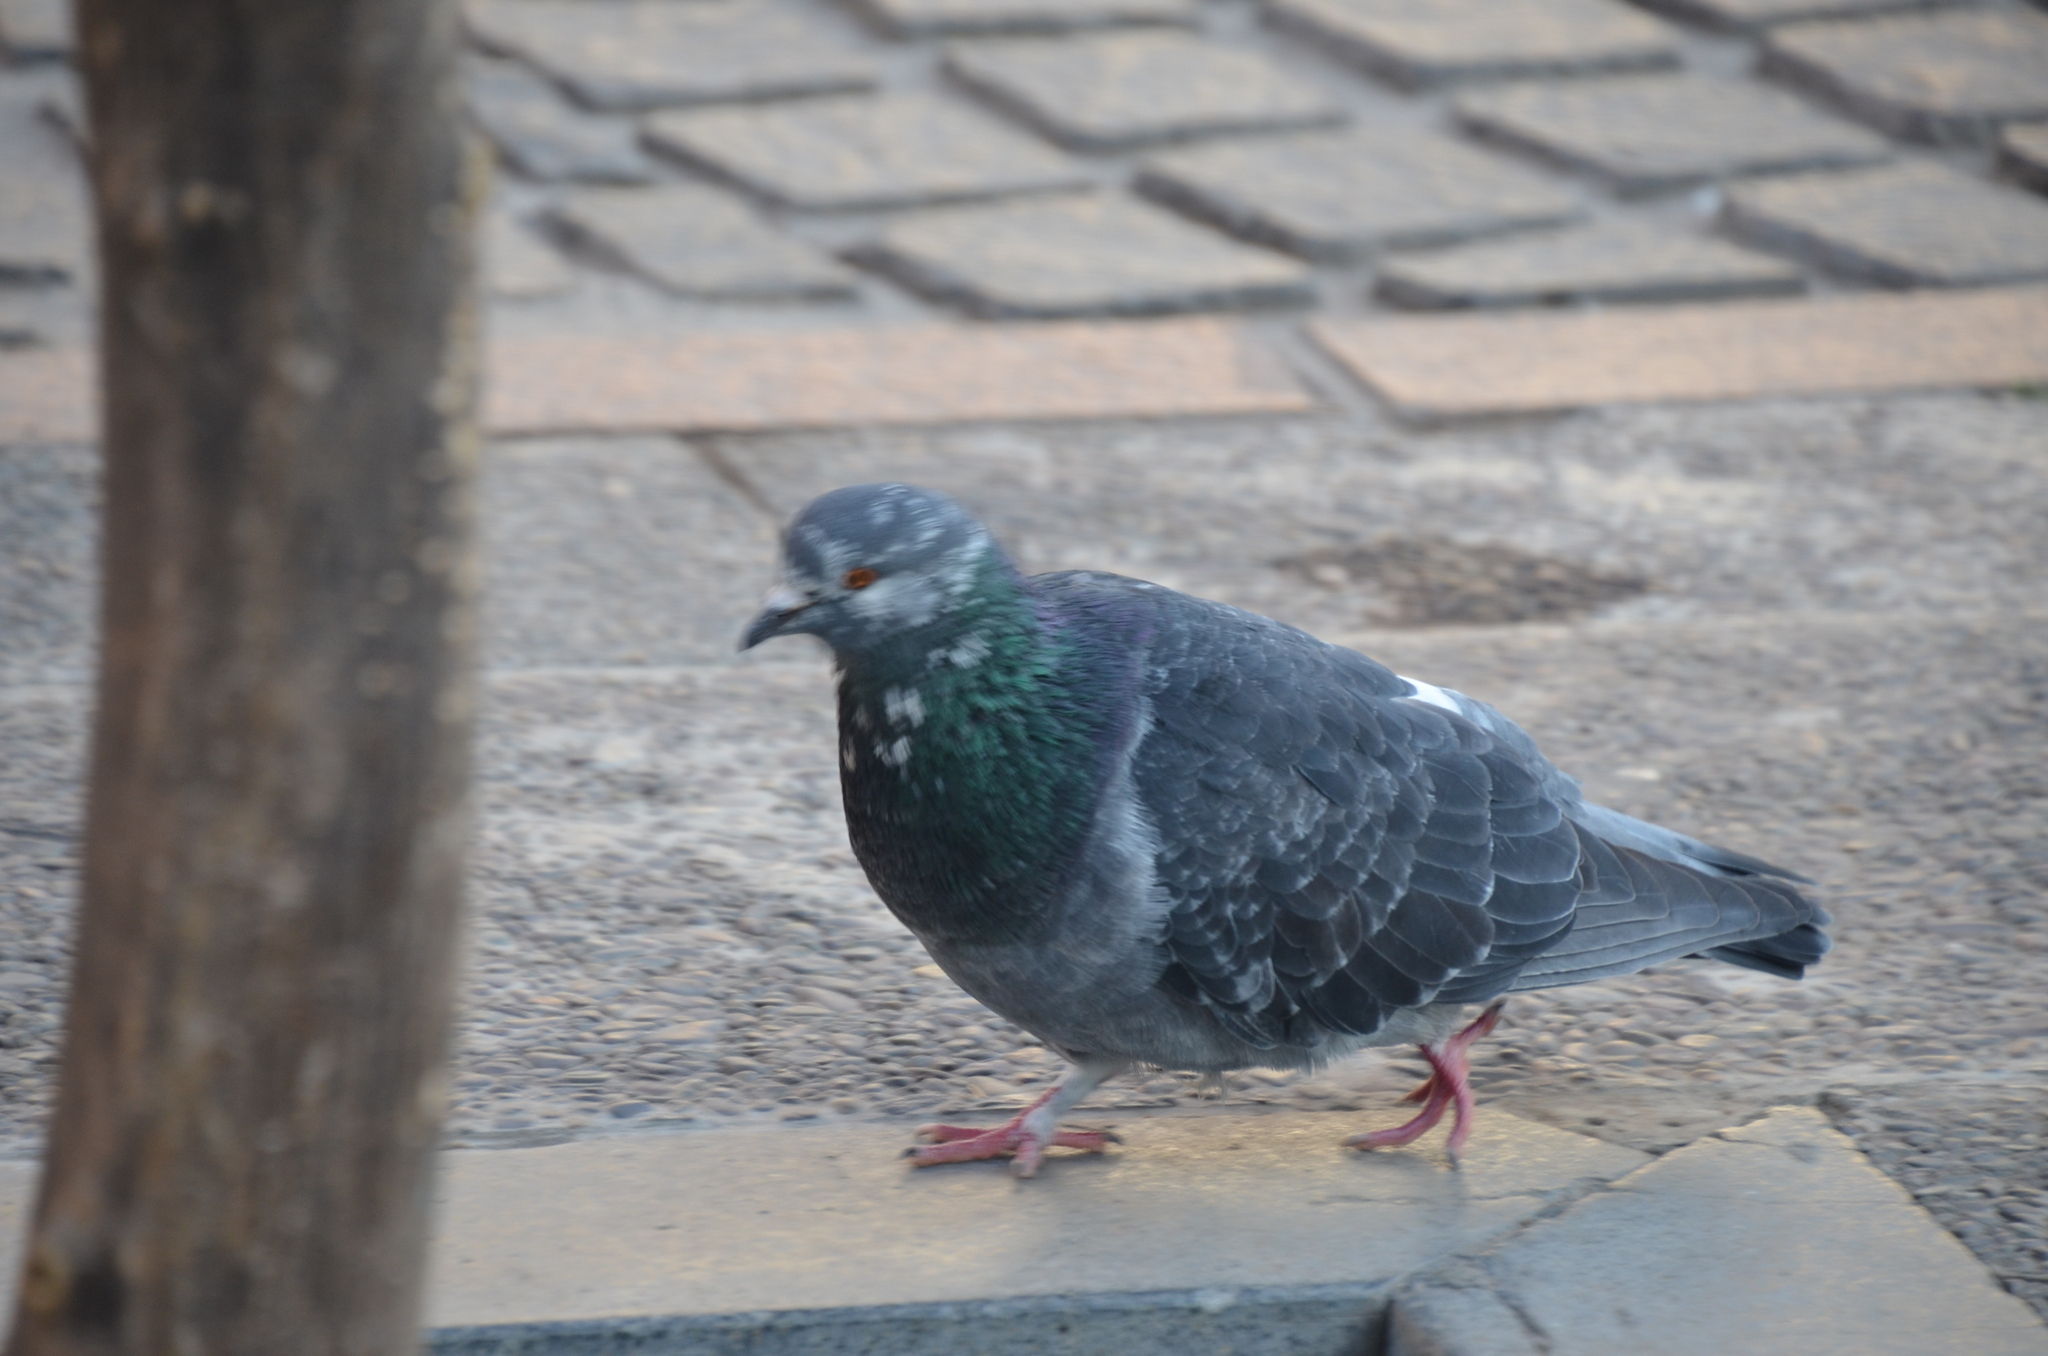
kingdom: Animalia
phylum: Chordata
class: Aves
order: Columbiformes
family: Columbidae
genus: Columba
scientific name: Columba livia
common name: Rock pigeon
